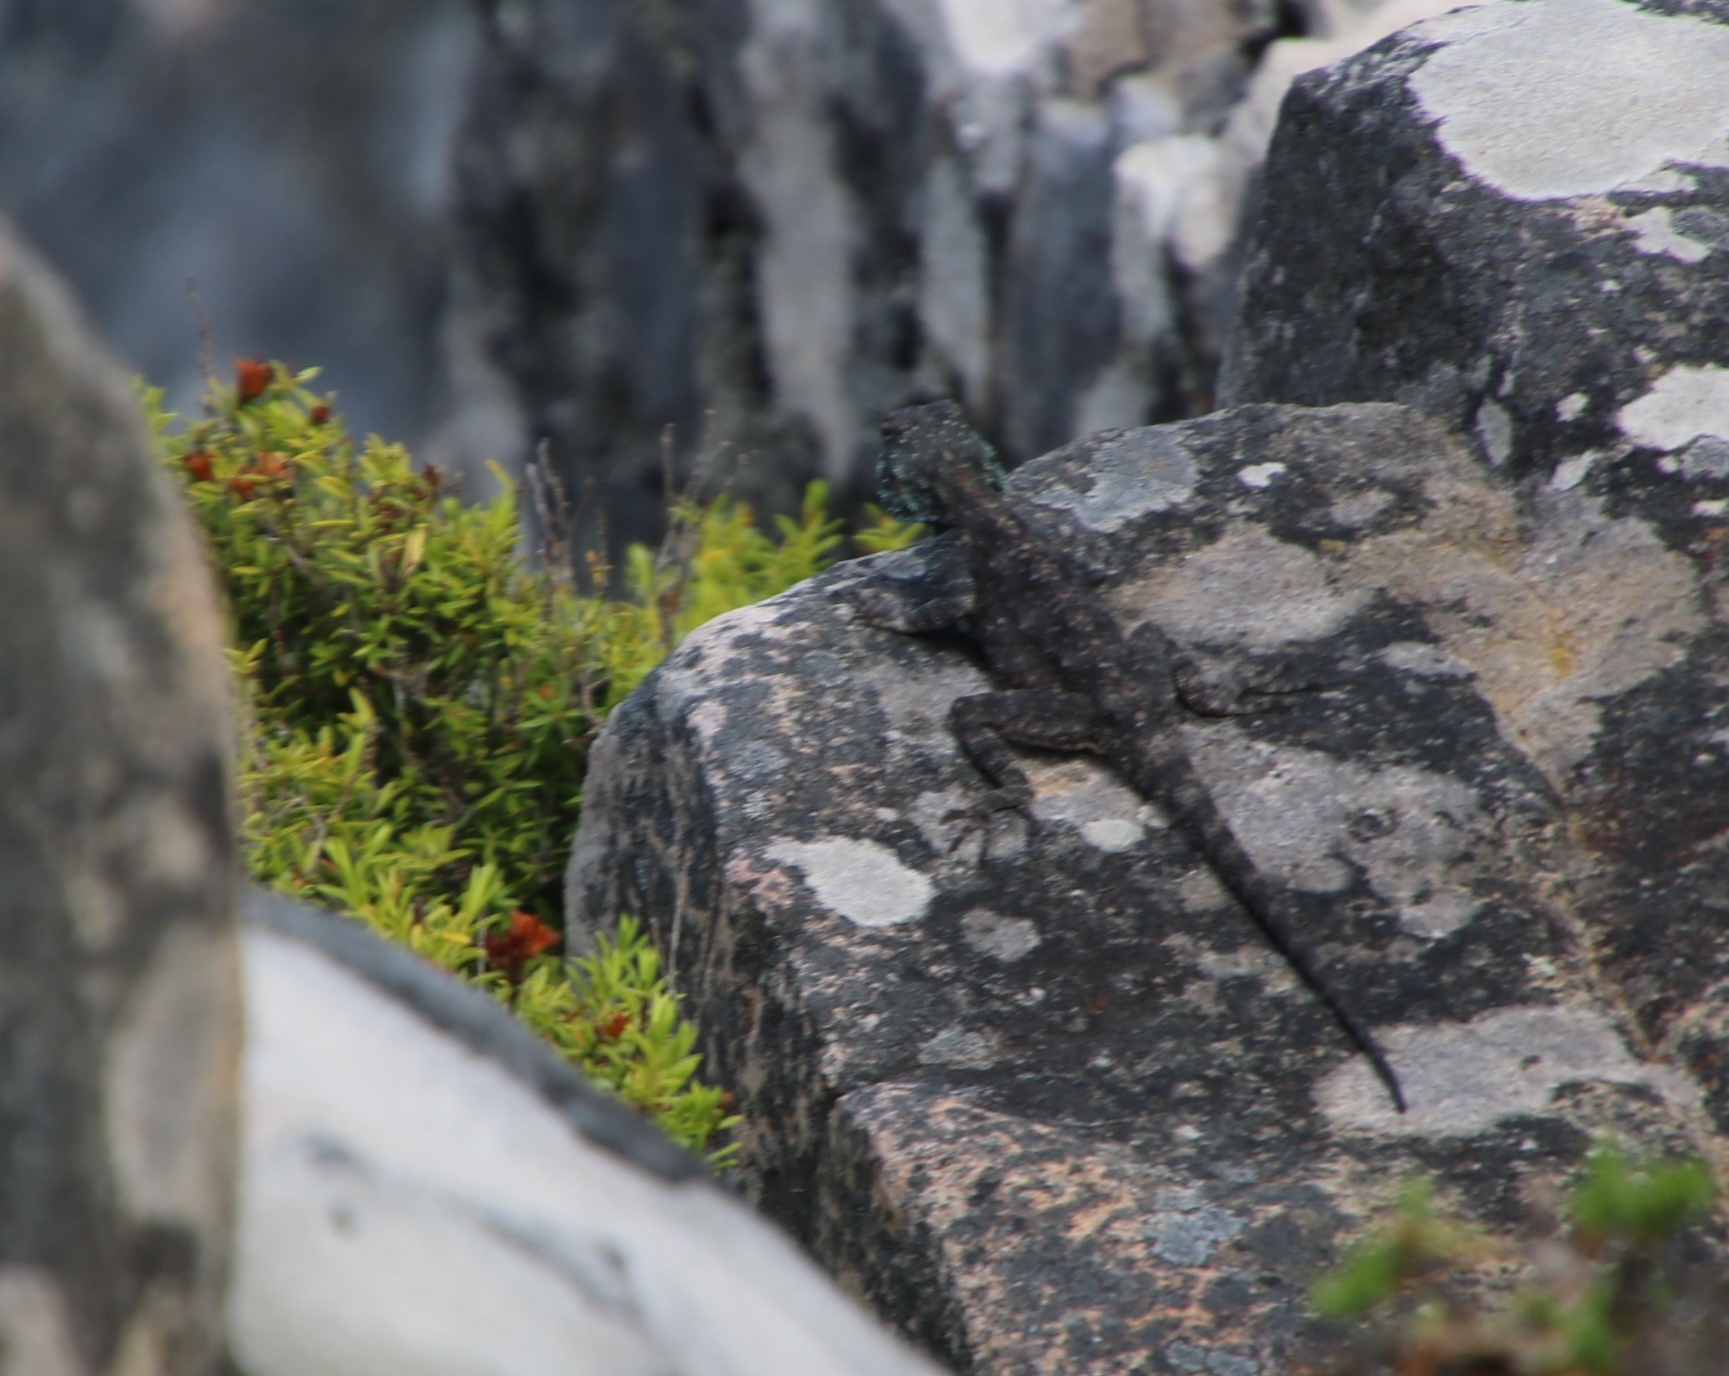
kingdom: Animalia
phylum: Chordata
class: Squamata
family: Agamidae
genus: Agama
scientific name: Agama atra
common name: Southern african rock agama
